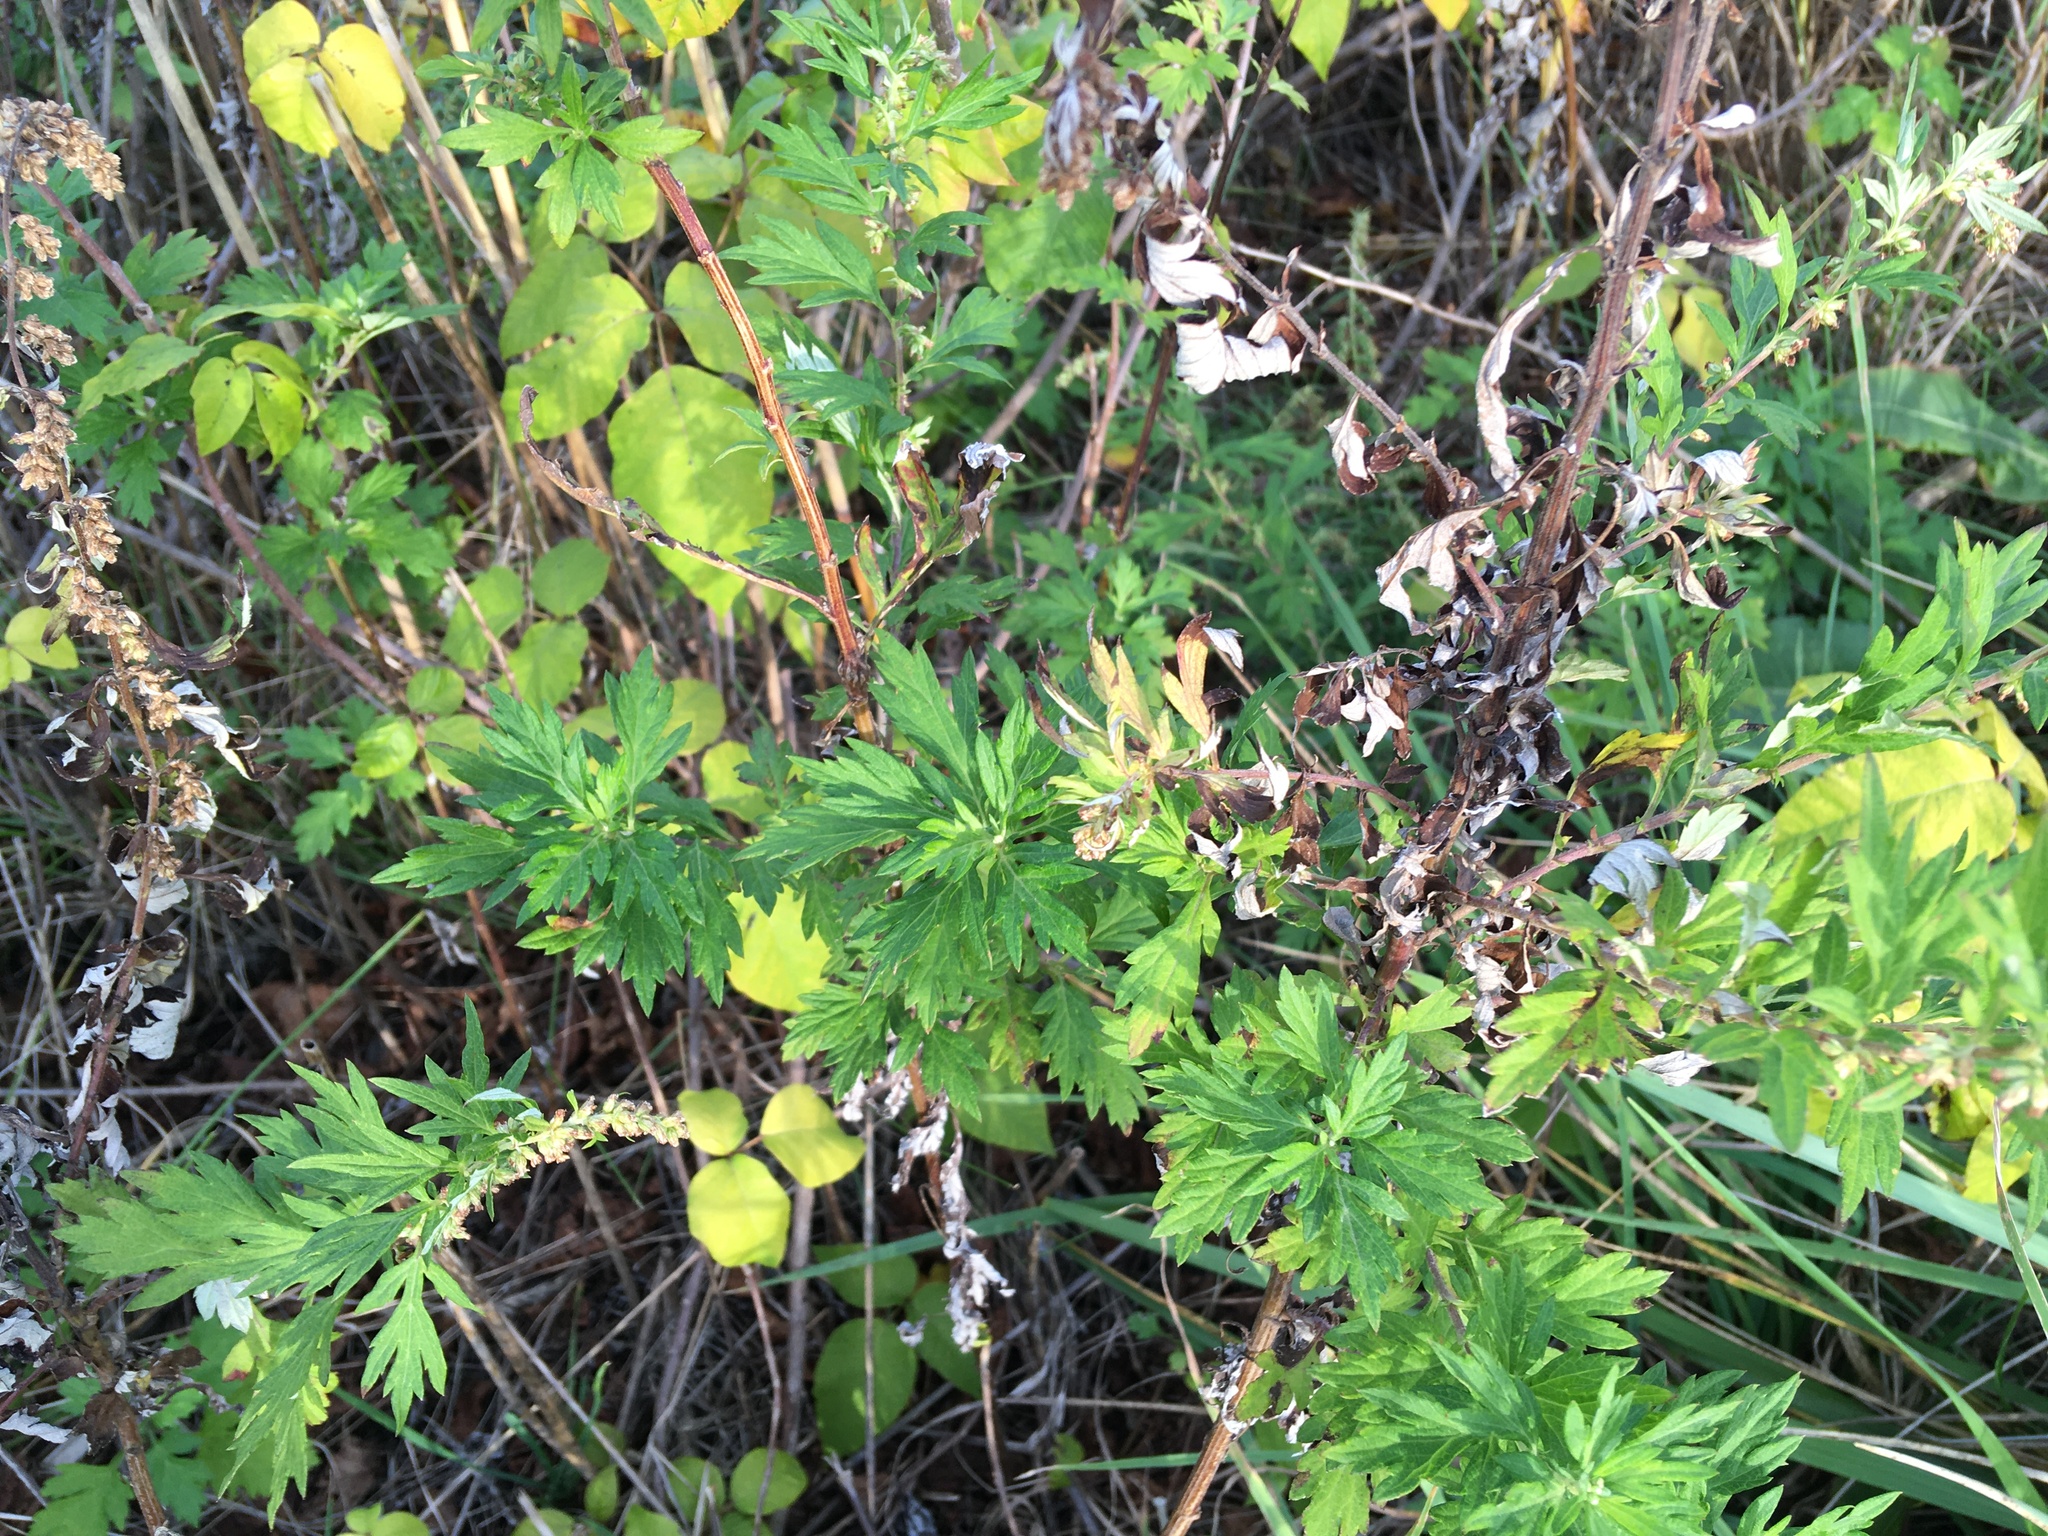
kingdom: Plantae
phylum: Tracheophyta
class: Magnoliopsida
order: Asterales
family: Asteraceae
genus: Artemisia
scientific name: Artemisia vulgaris
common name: Mugwort
